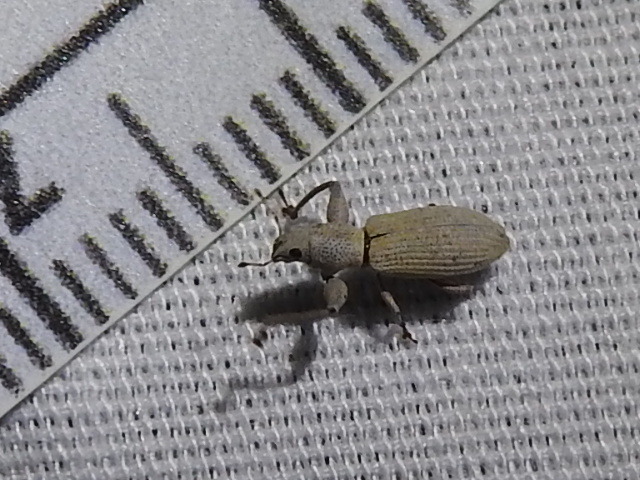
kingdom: Animalia
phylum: Arthropoda
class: Insecta
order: Coleoptera
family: Curculionidae
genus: Pandeleteius
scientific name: Pandeleteius nodifer
